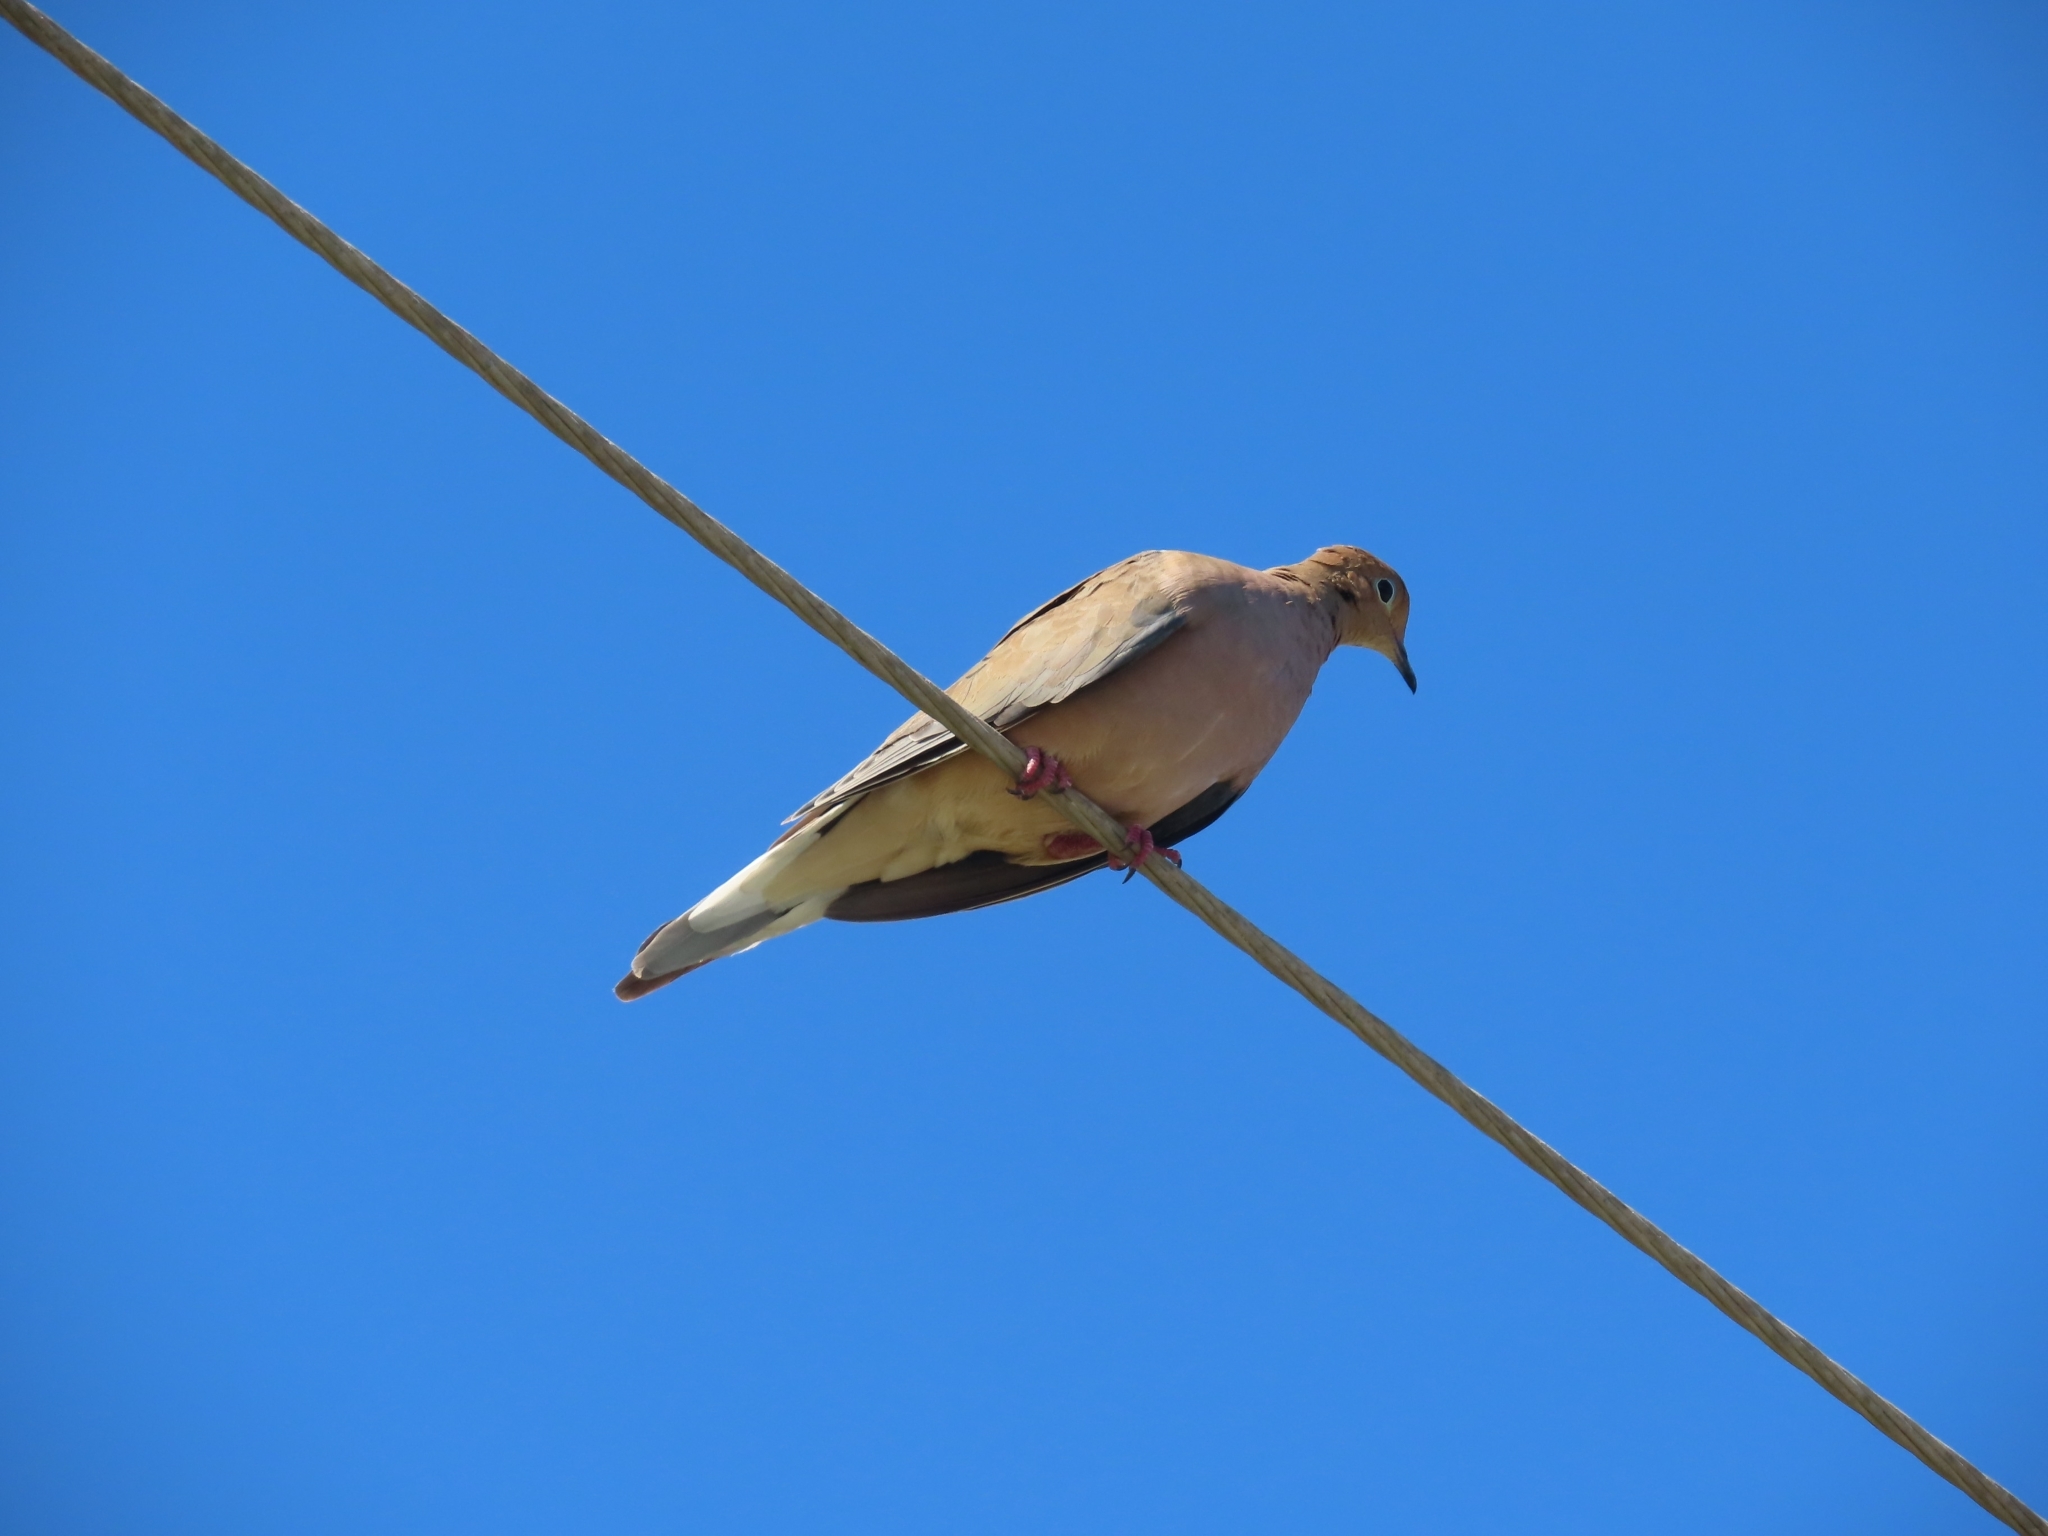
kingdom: Animalia
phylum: Chordata
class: Aves
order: Columbiformes
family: Columbidae
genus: Zenaida
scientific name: Zenaida macroura
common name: Mourning dove
